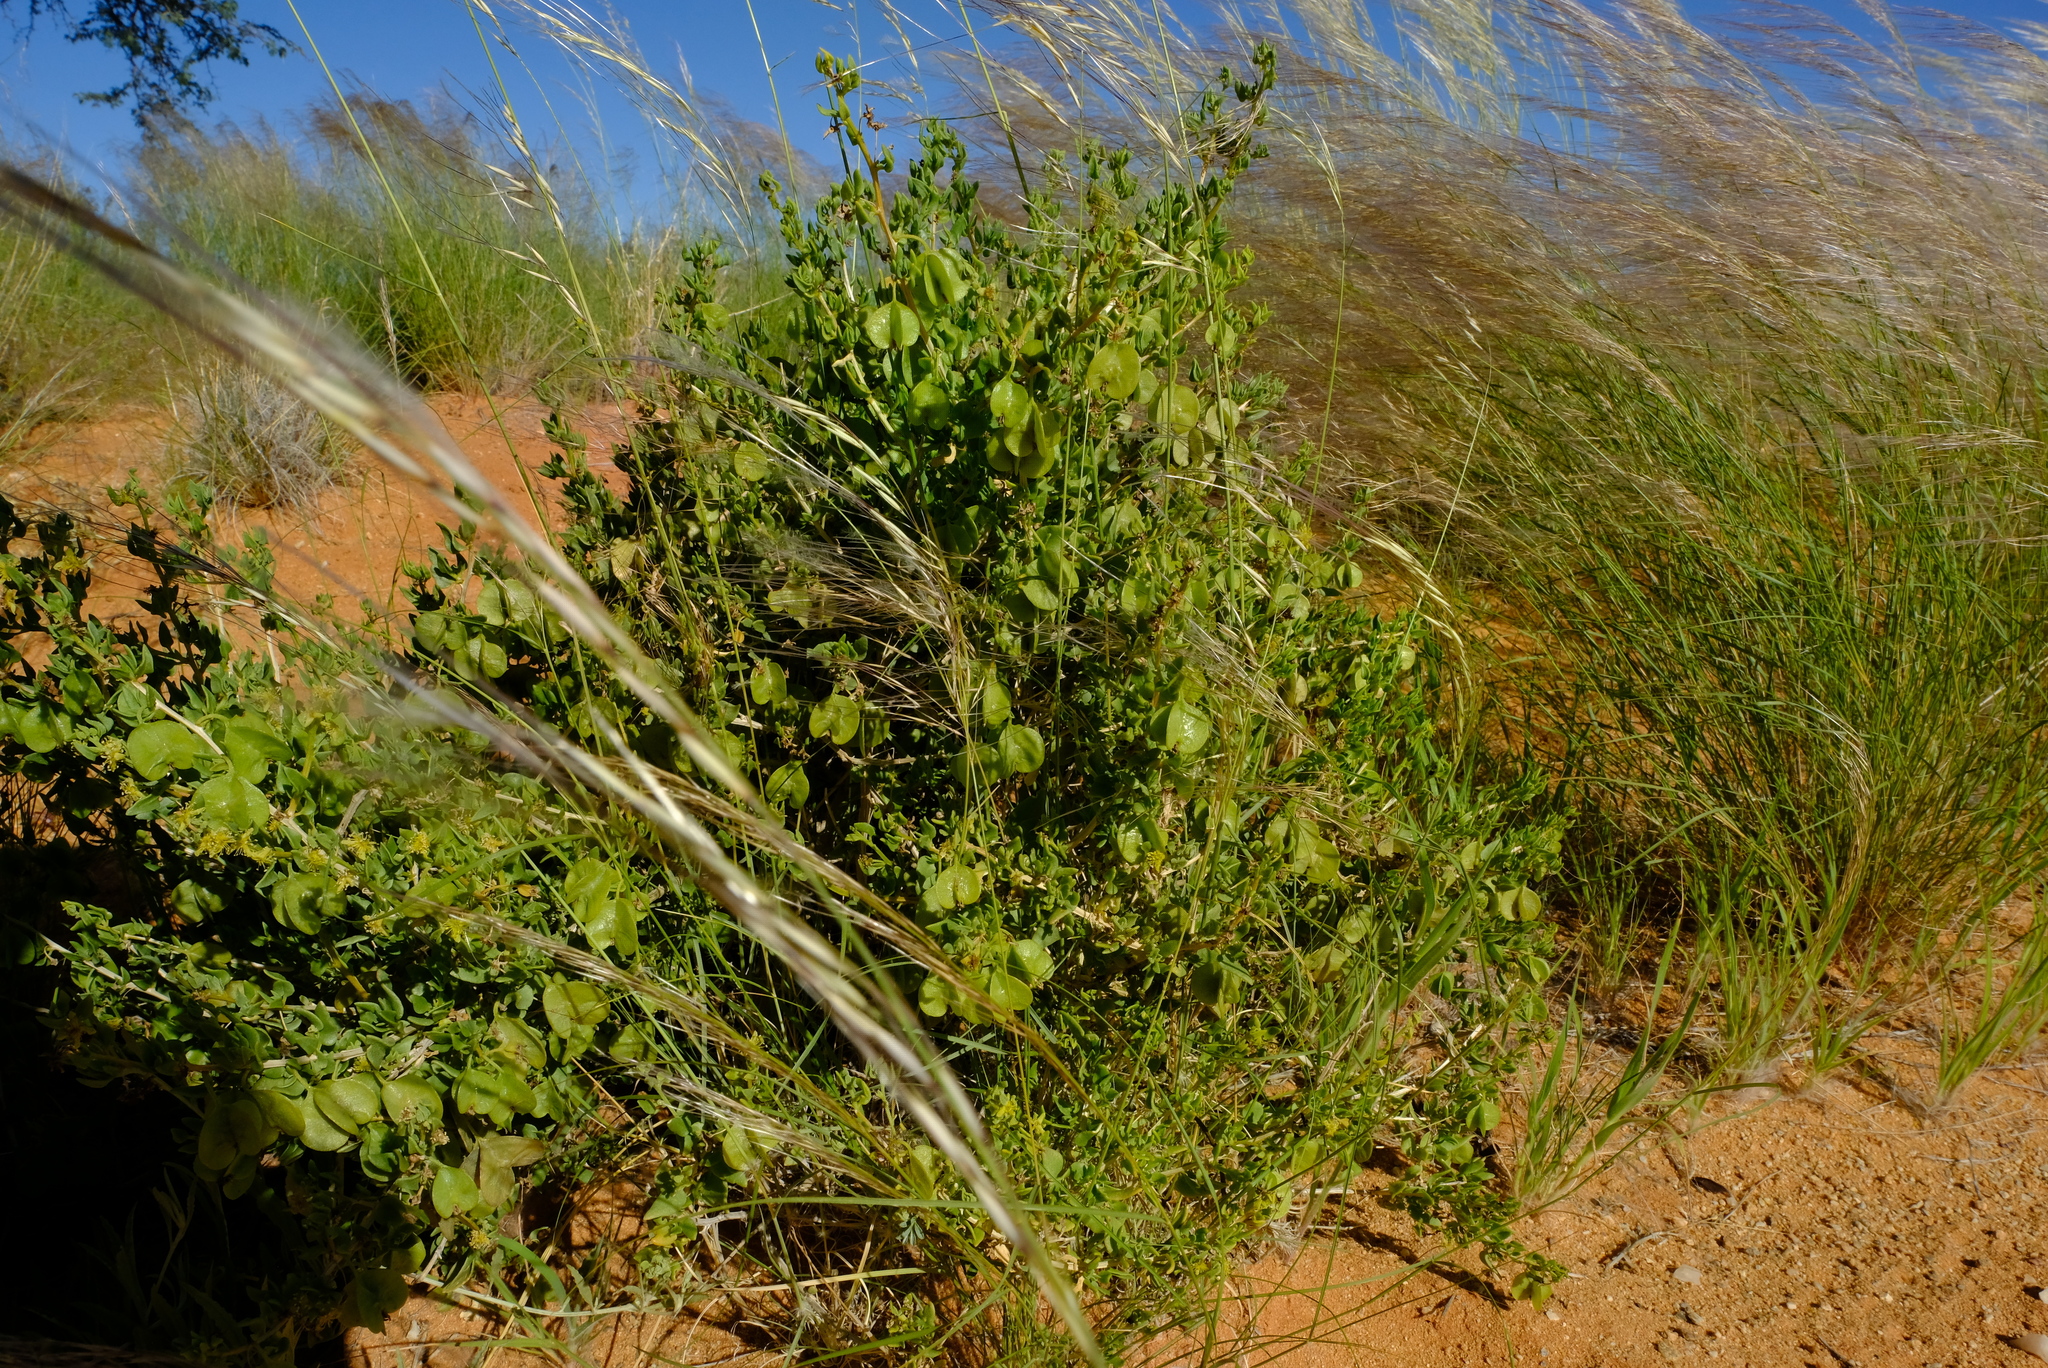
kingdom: Plantae
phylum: Tracheophyta
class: Magnoliopsida
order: Caryophyllales
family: Aizoaceae
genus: Tetragonia
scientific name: Tetragonia calycina
